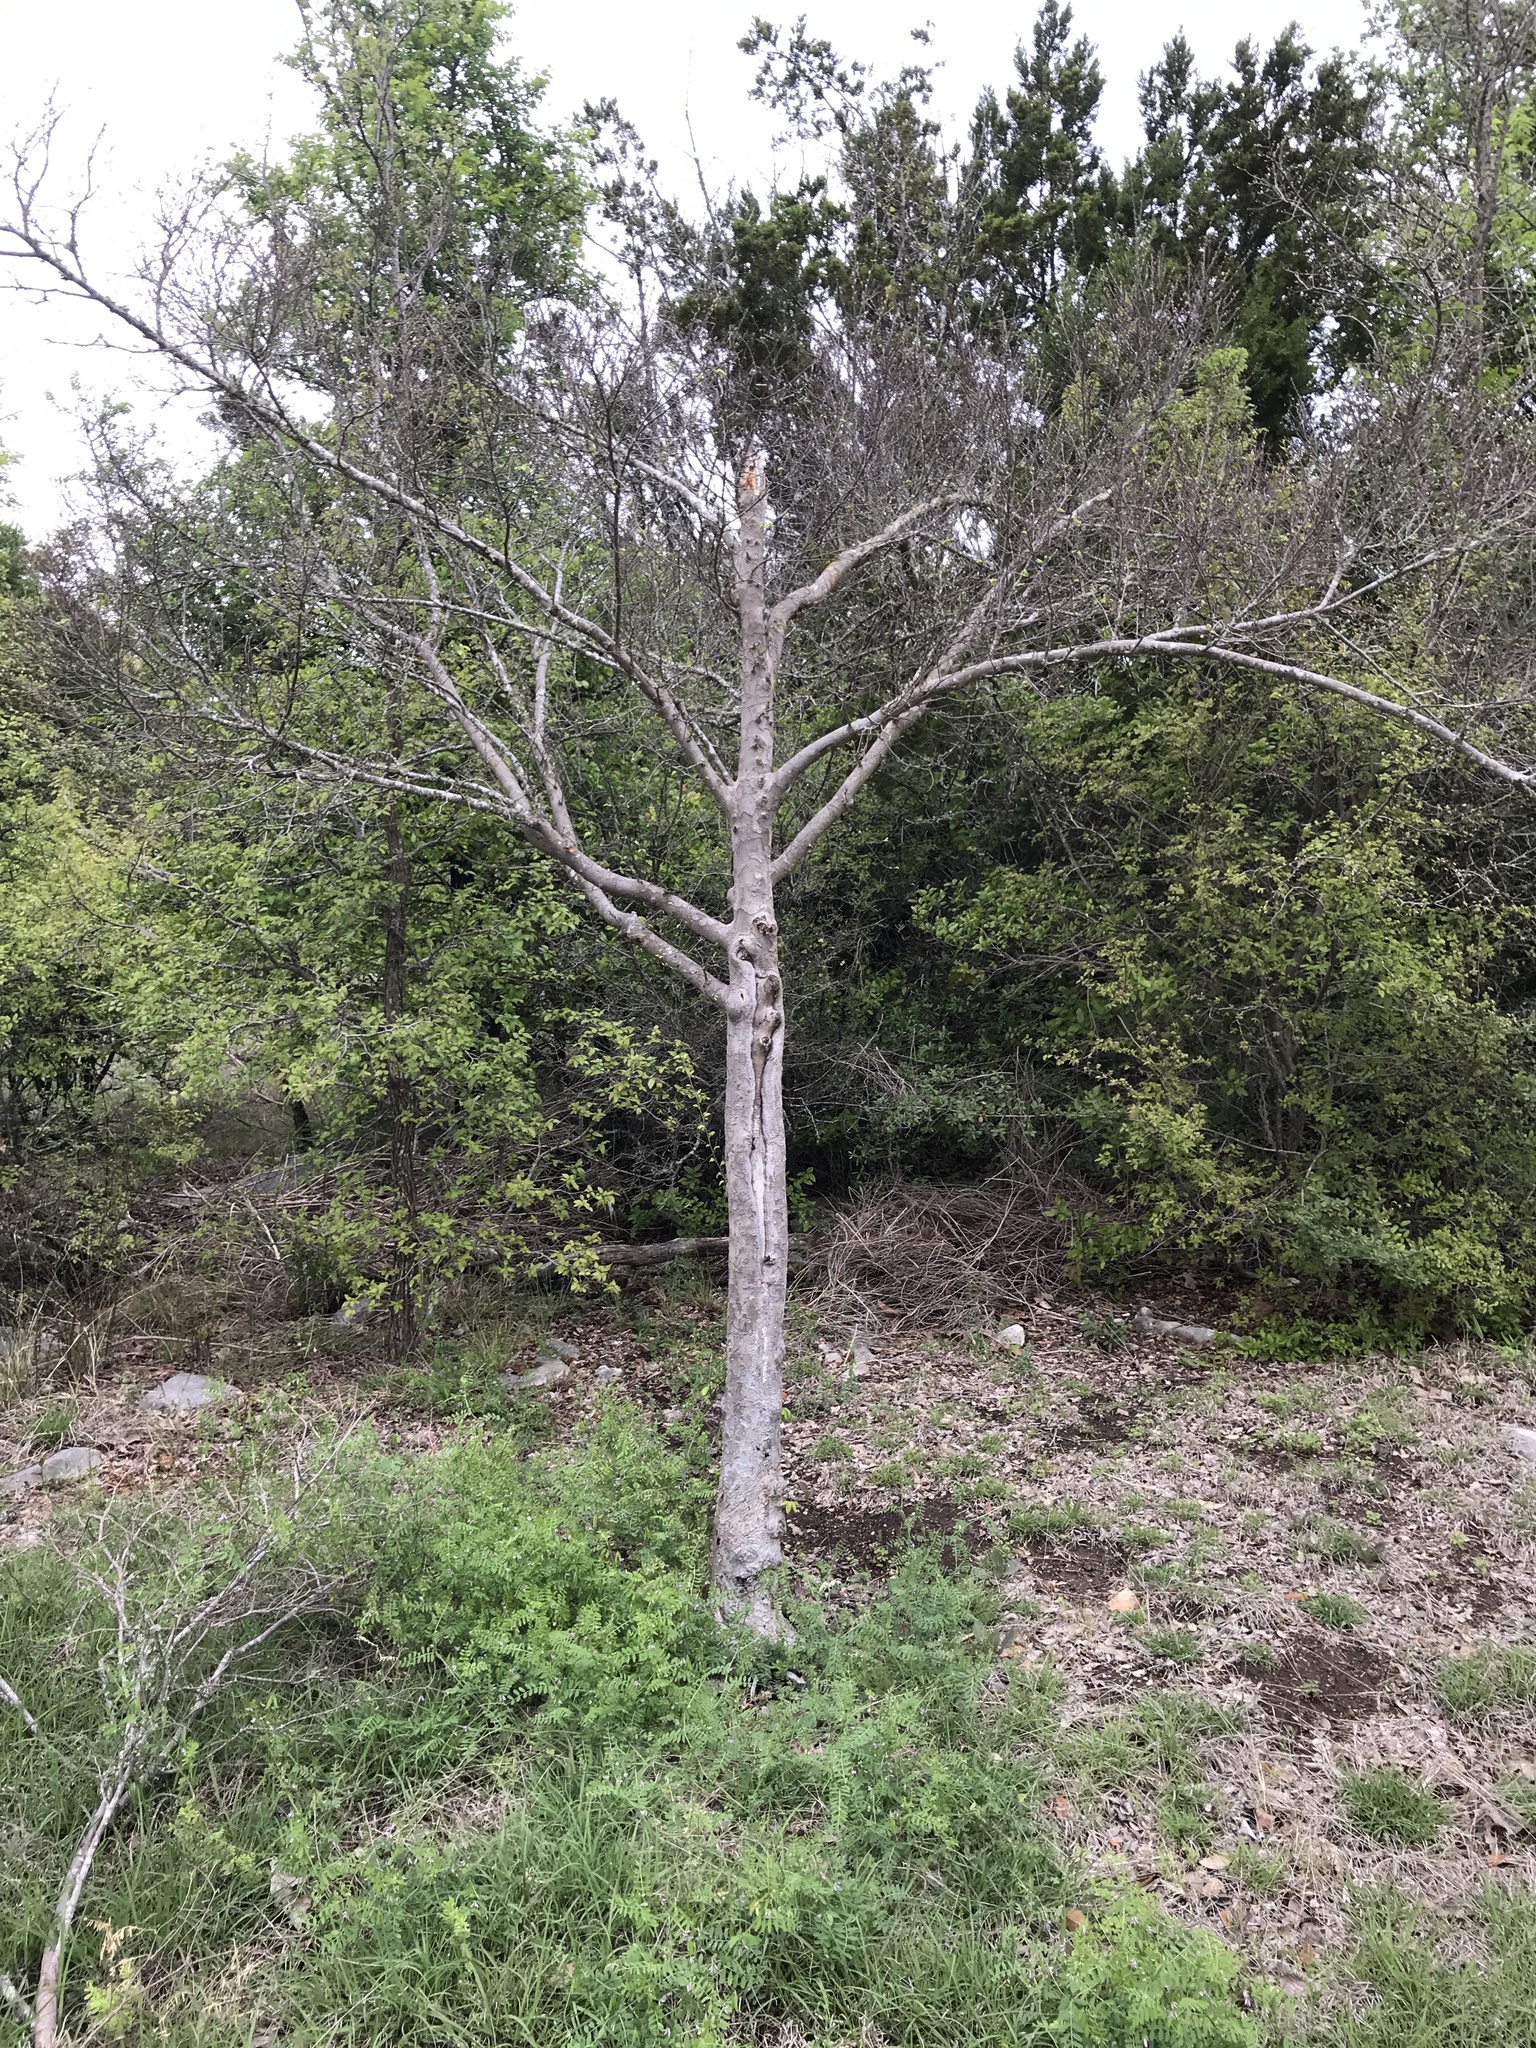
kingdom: Plantae
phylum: Tracheophyta
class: Magnoliopsida
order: Rosales
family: Ulmaceae
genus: Ulmus
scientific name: Ulmus parvifolia
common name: Chinese elm
